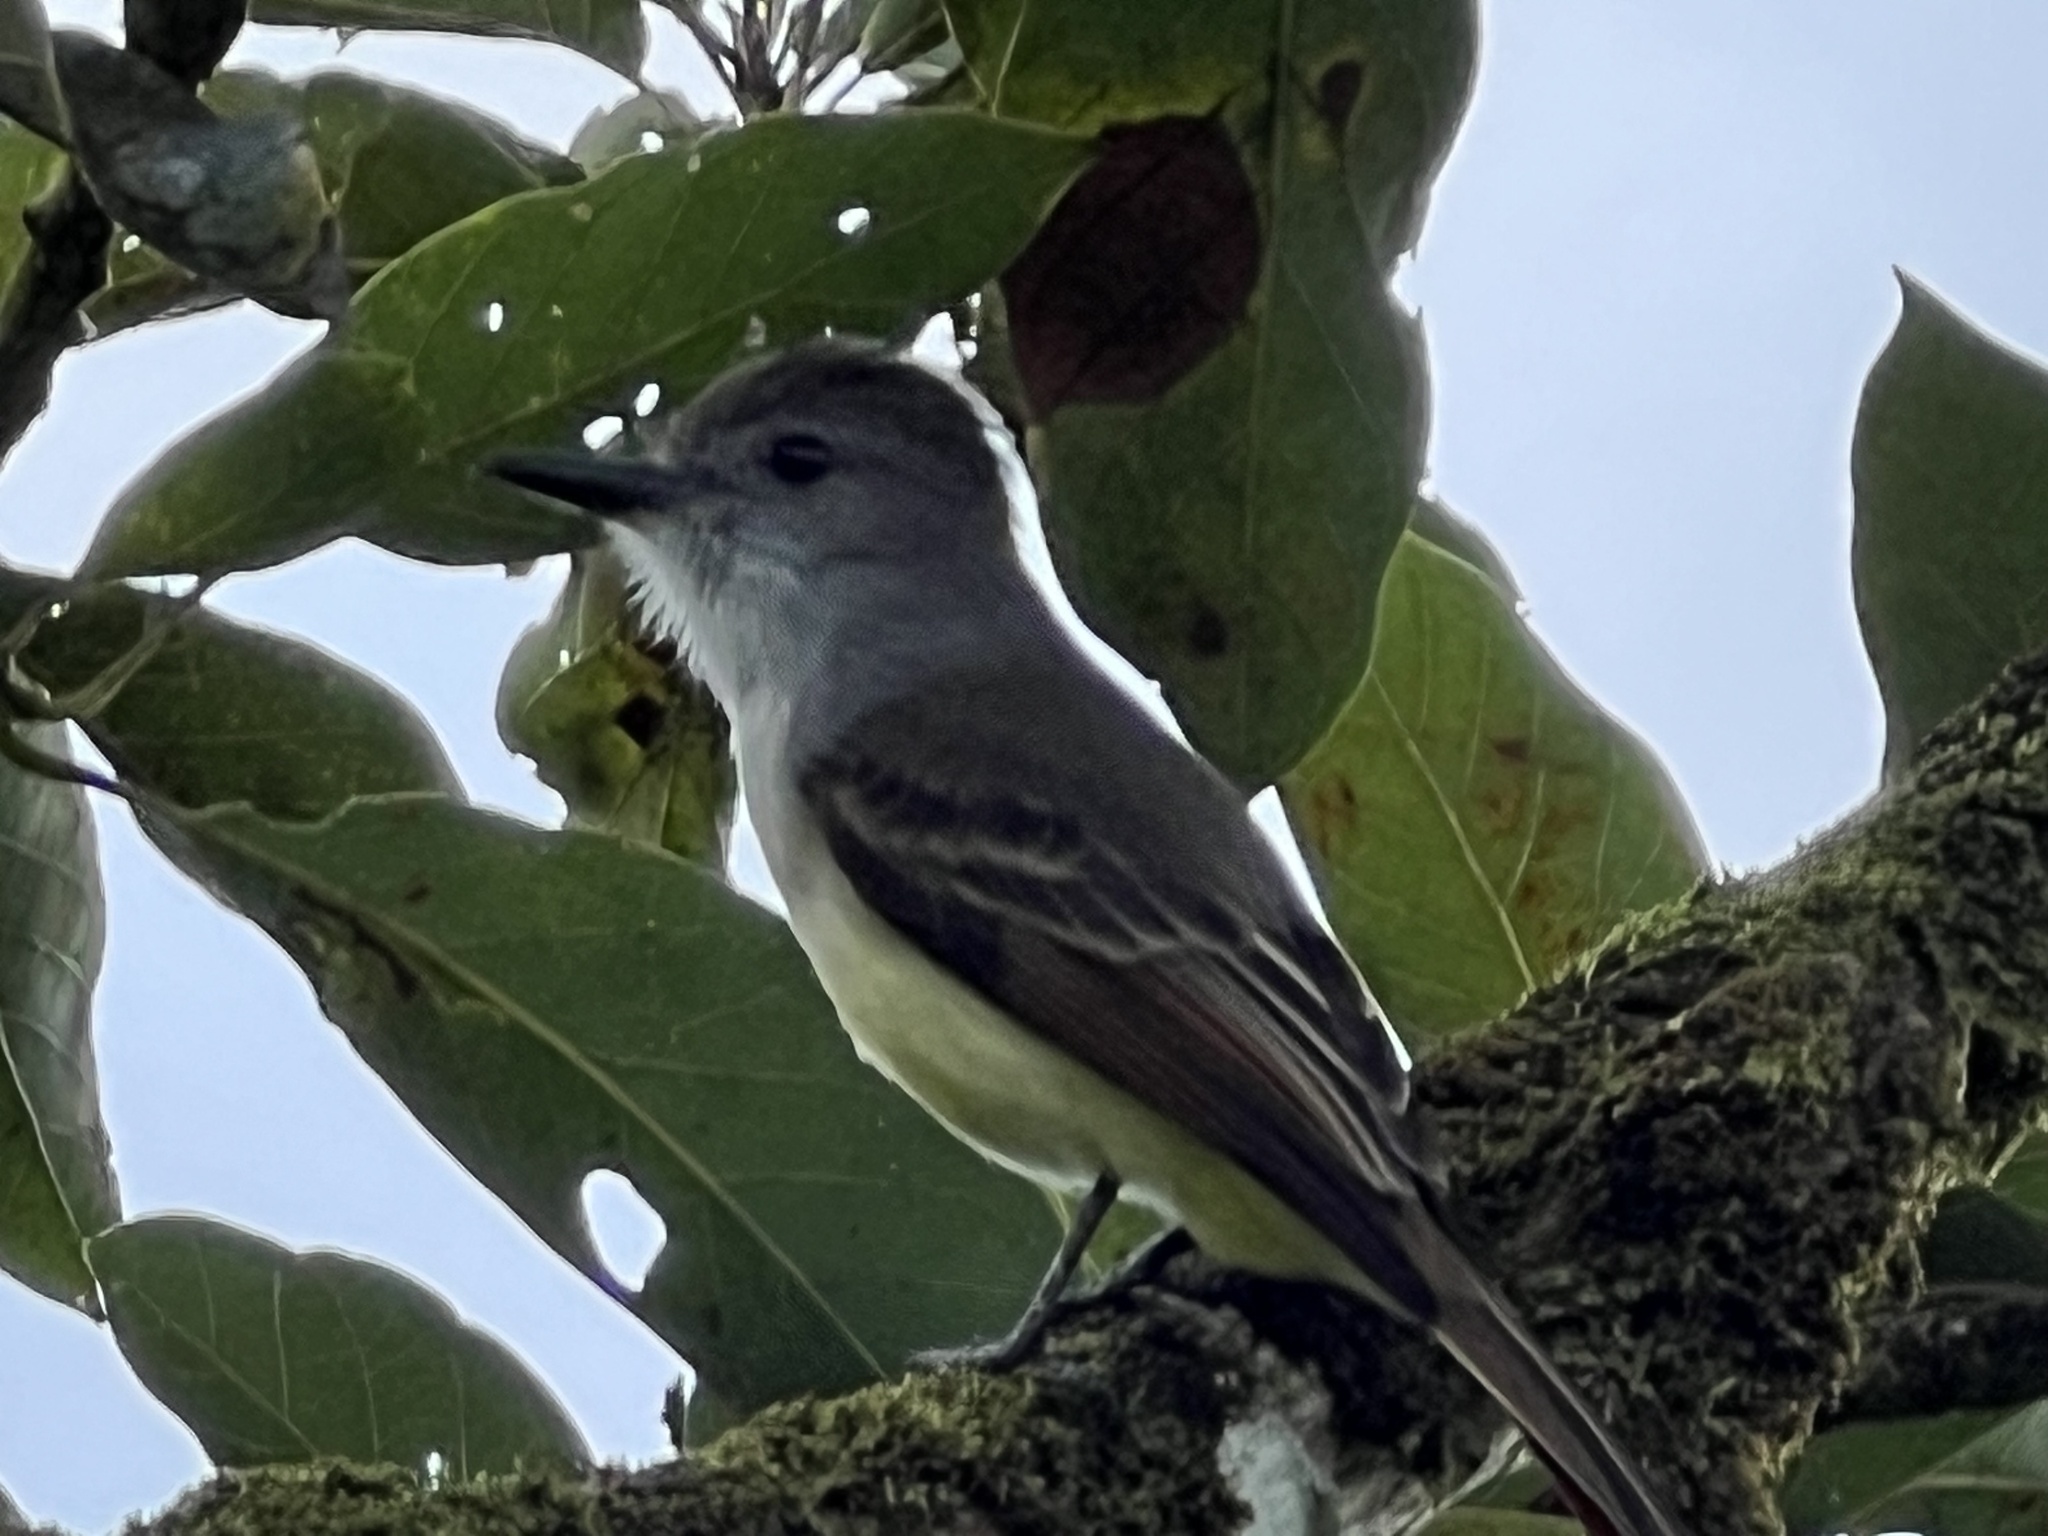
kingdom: Animalia
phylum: Chordata
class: Aves
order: Passeriformes
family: Tyrannidae
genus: Myiarchus
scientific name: Myiarchus oberi
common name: Lesser antillean flycatcher
